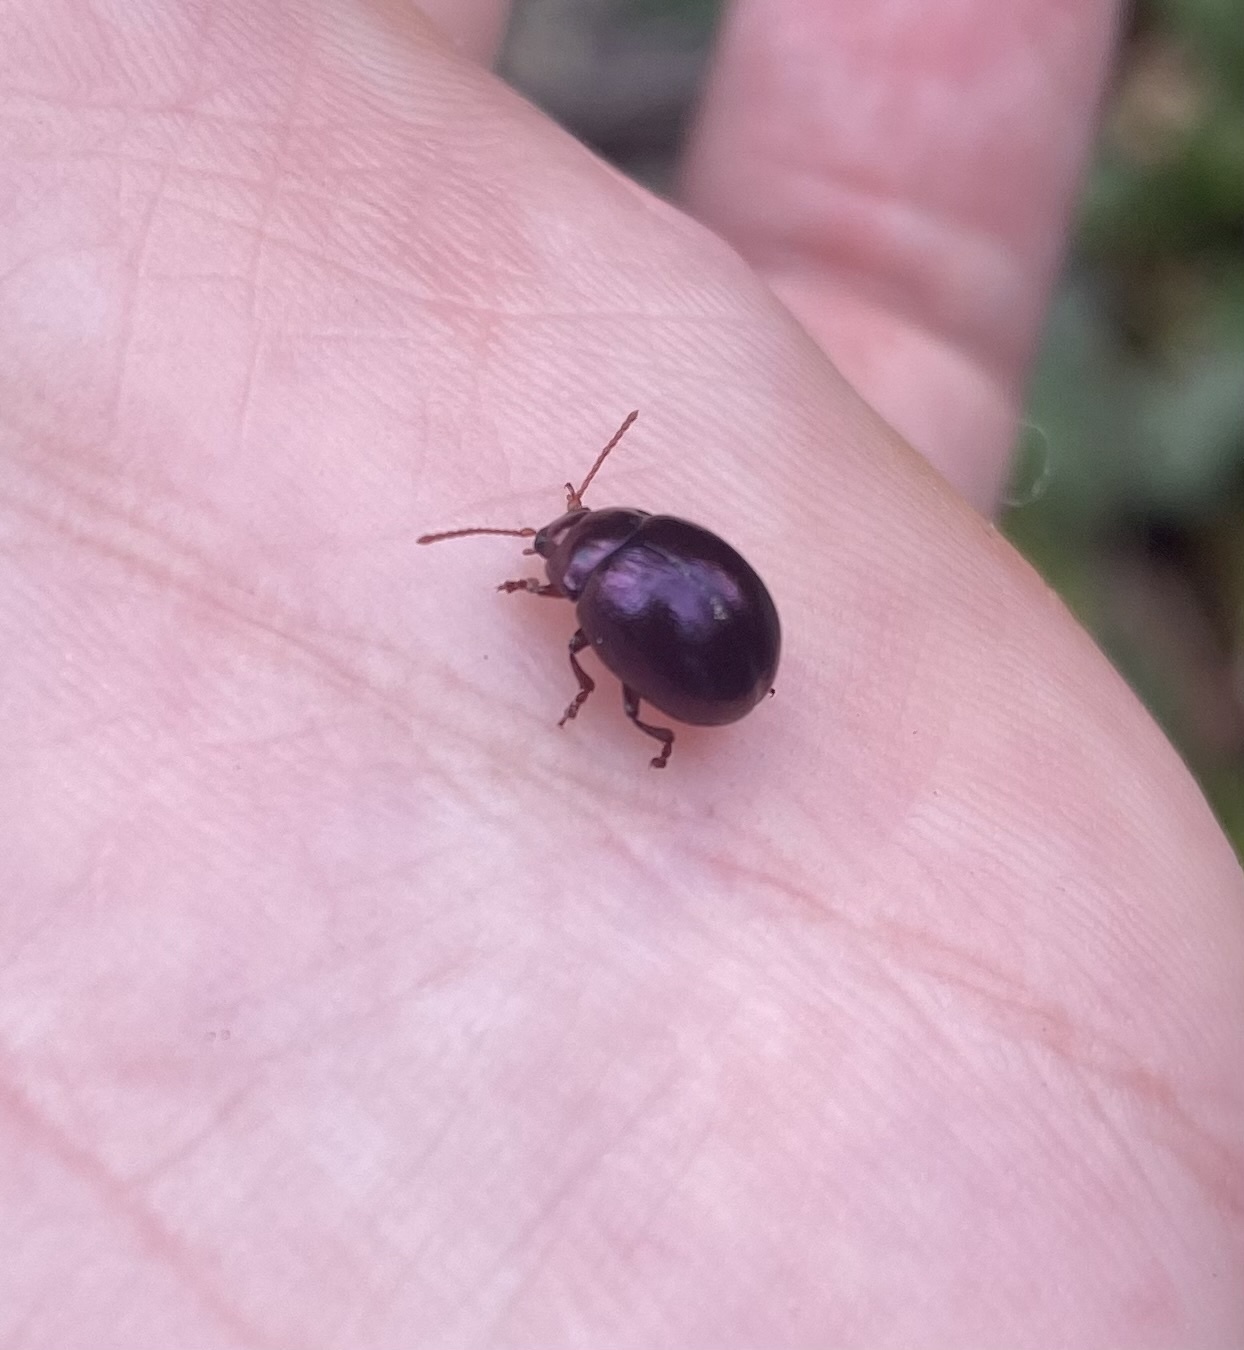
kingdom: Animalia
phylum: Arthropoda
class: Insecta
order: Coleoptera
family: Chrysomelidae
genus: Chrysolina
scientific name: Chrysolina
